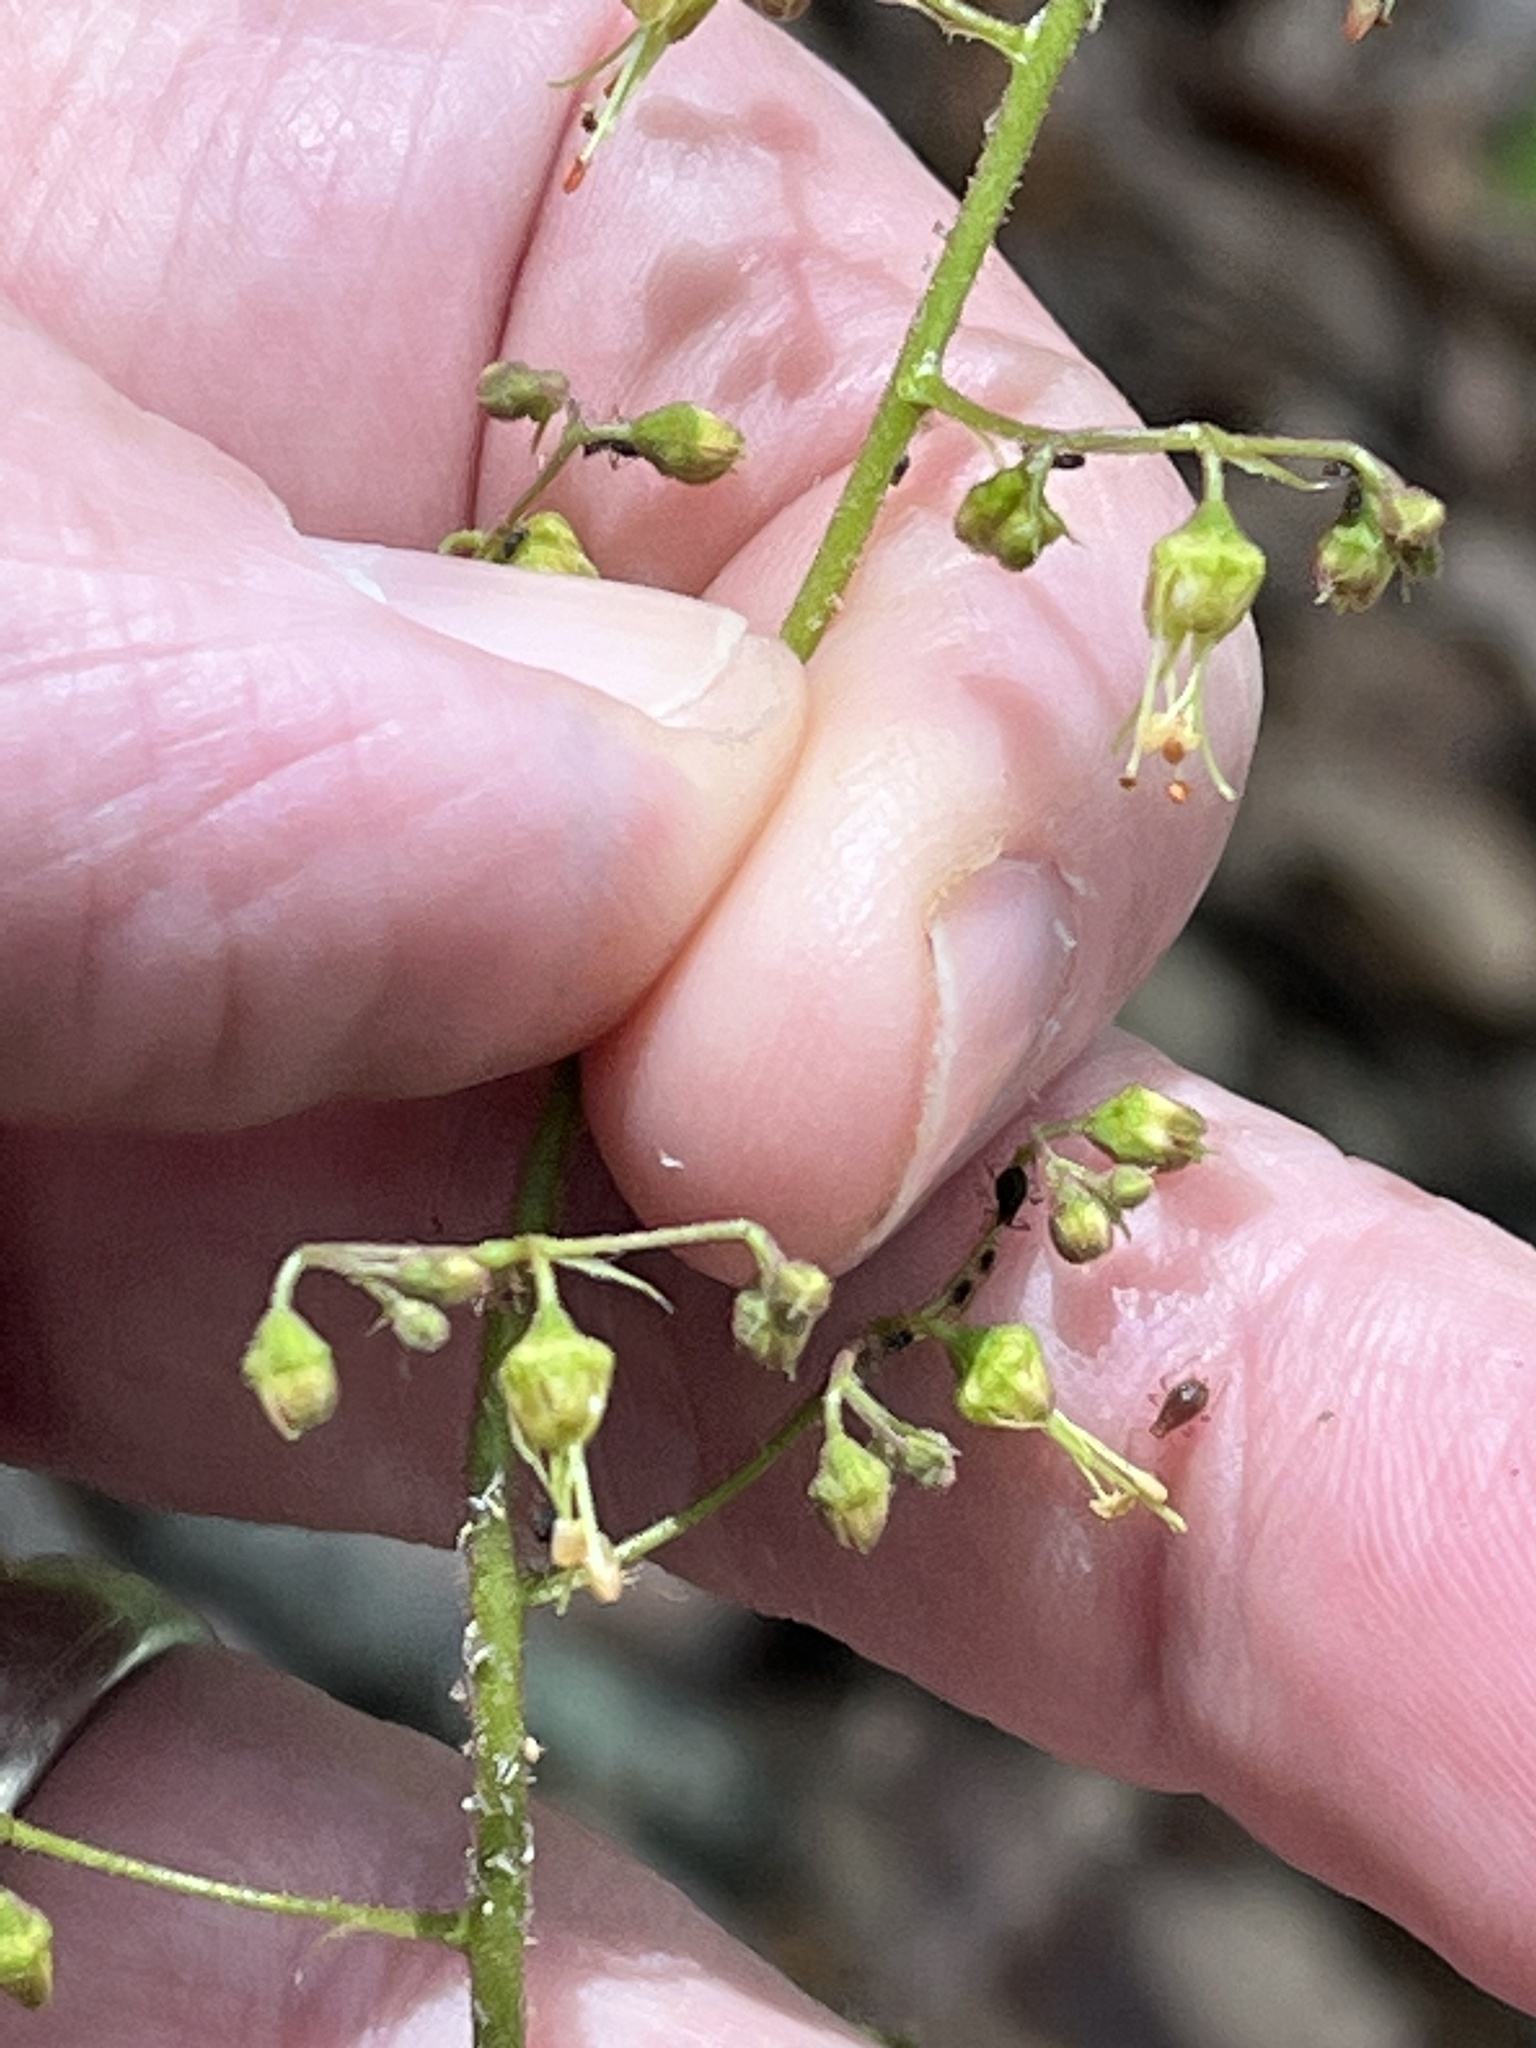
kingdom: Plantae
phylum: Tracheophyta
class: Magnoliopsida
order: Saxifragales
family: Saxifragaceae
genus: Heuchera
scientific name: Heuchera americana
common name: Alumroot
